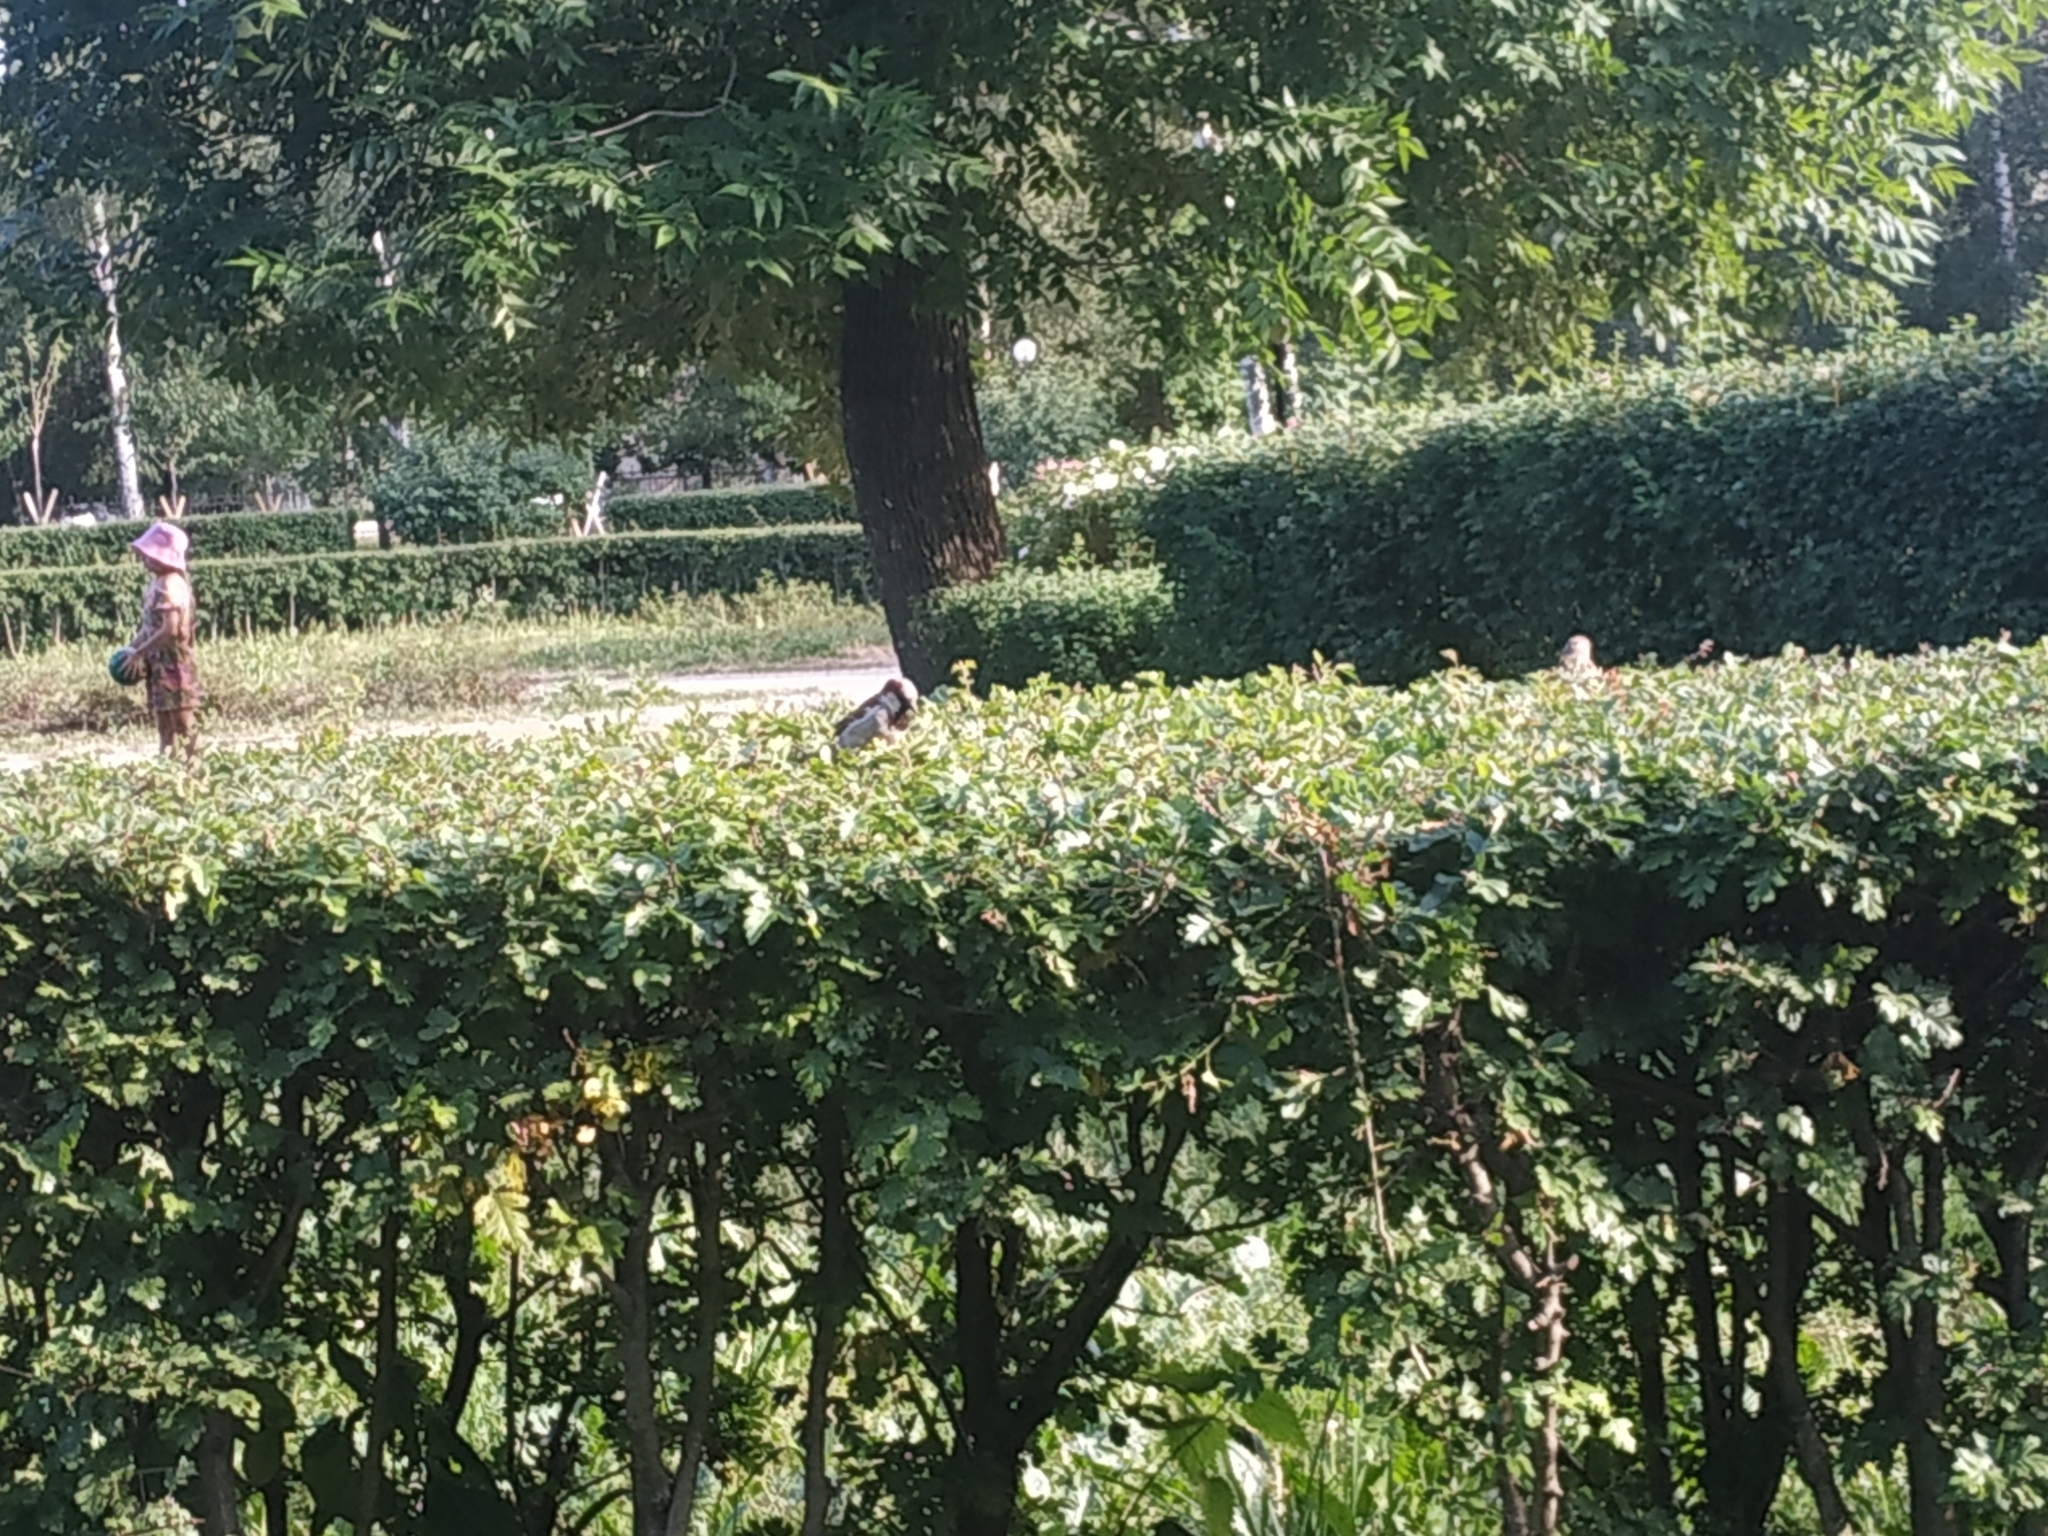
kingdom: Animalia
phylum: Chordata
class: Aves
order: Passeriformes
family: Passeridae
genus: Passer
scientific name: Passer domesticus
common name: House sparrow
